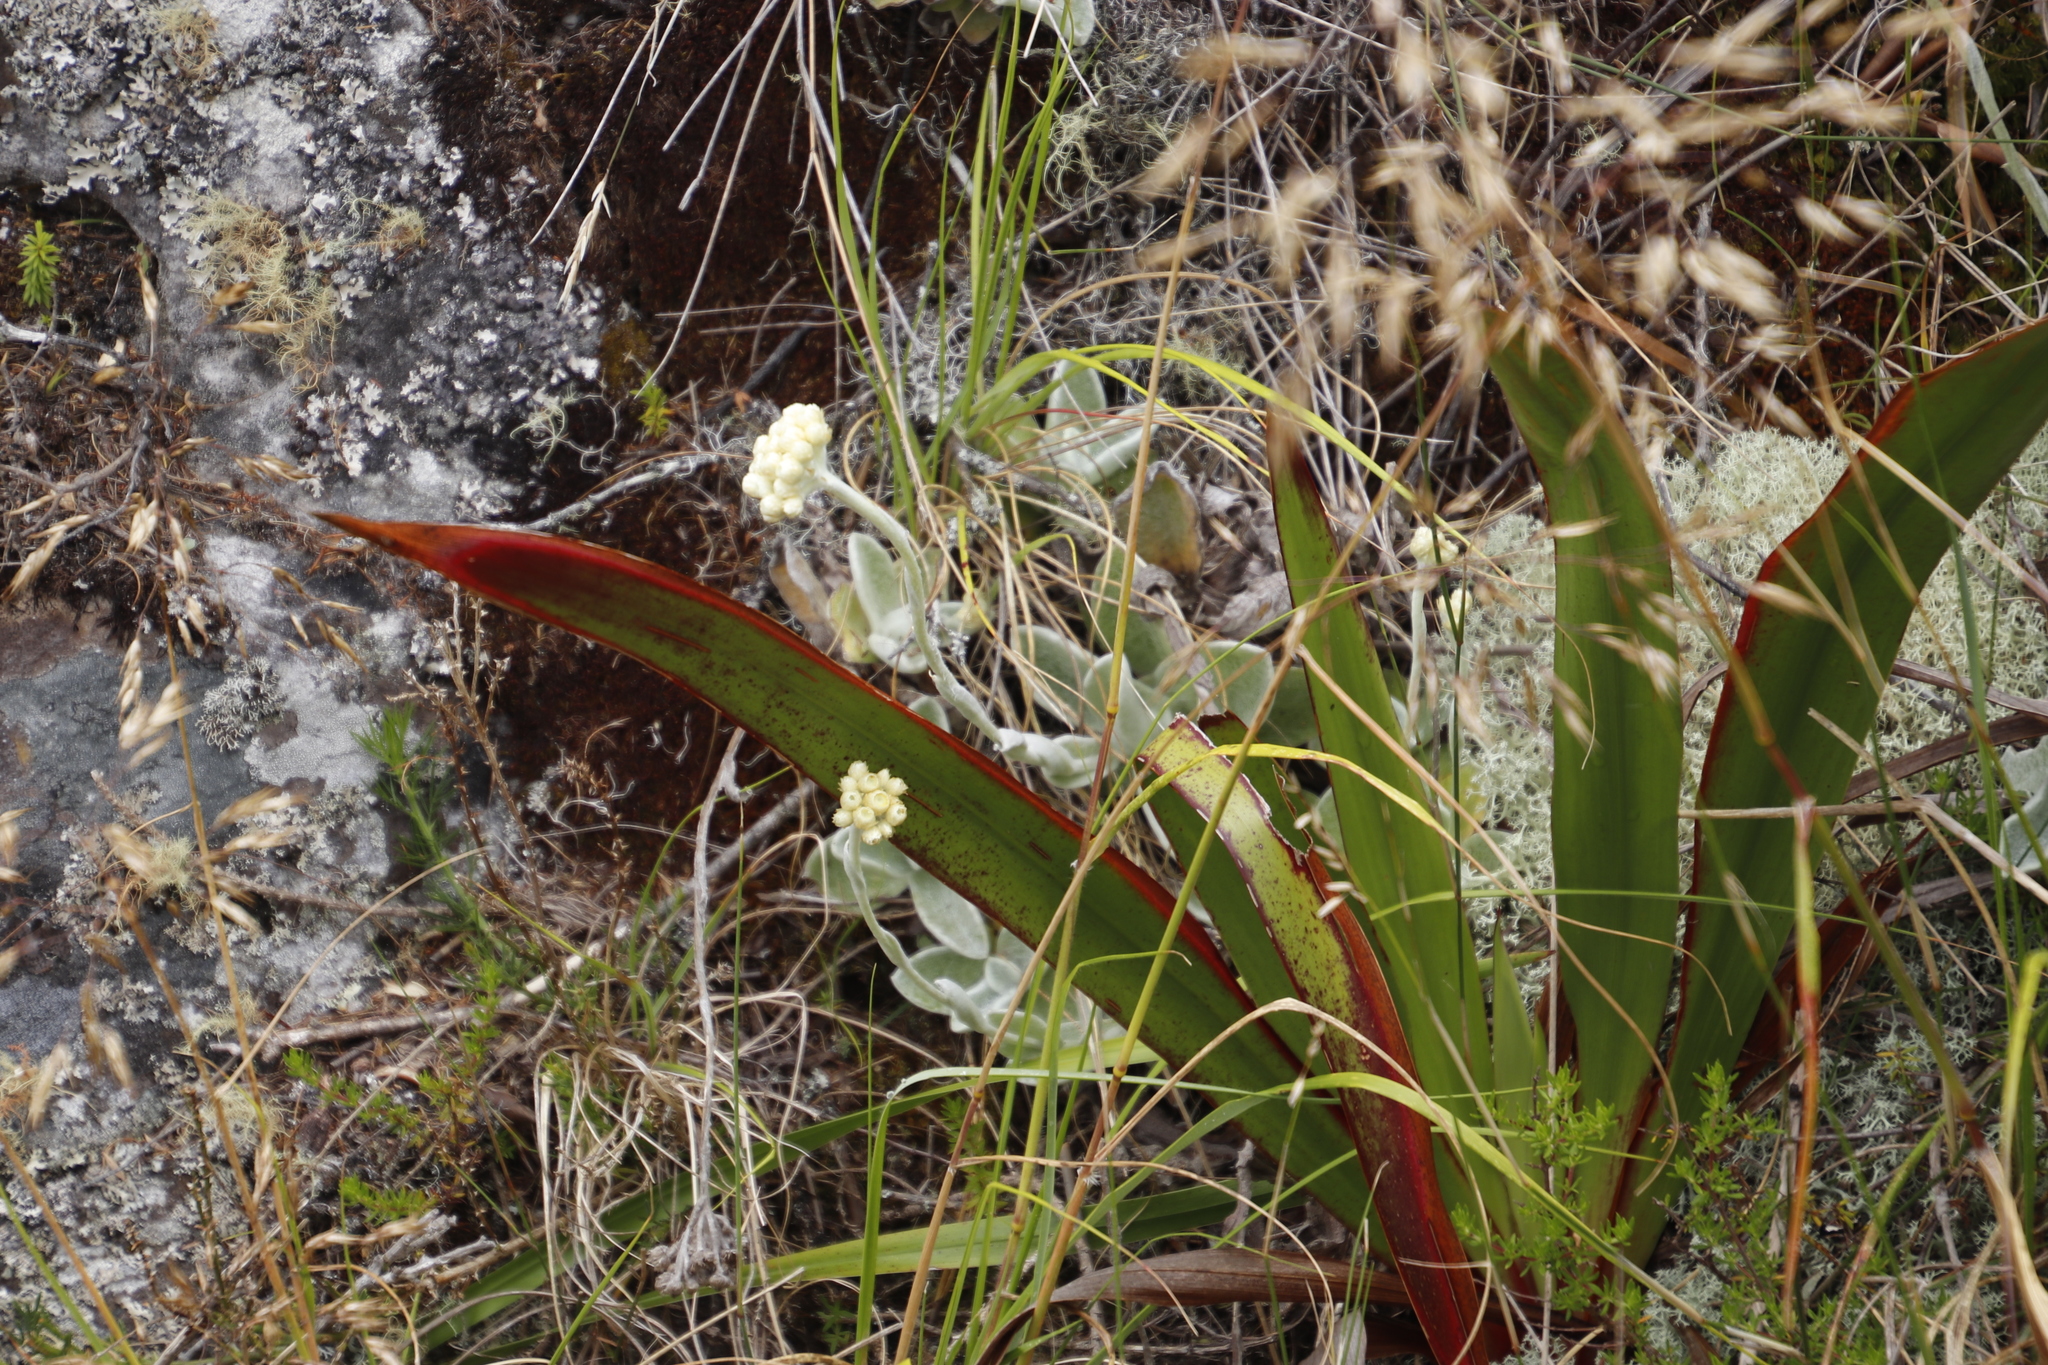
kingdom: Plantae
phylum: Tracheophyta
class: Magnoliopsida
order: Asterales
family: Asteraceae
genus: Helichrysum
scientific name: Helichrysum grandiflorum
